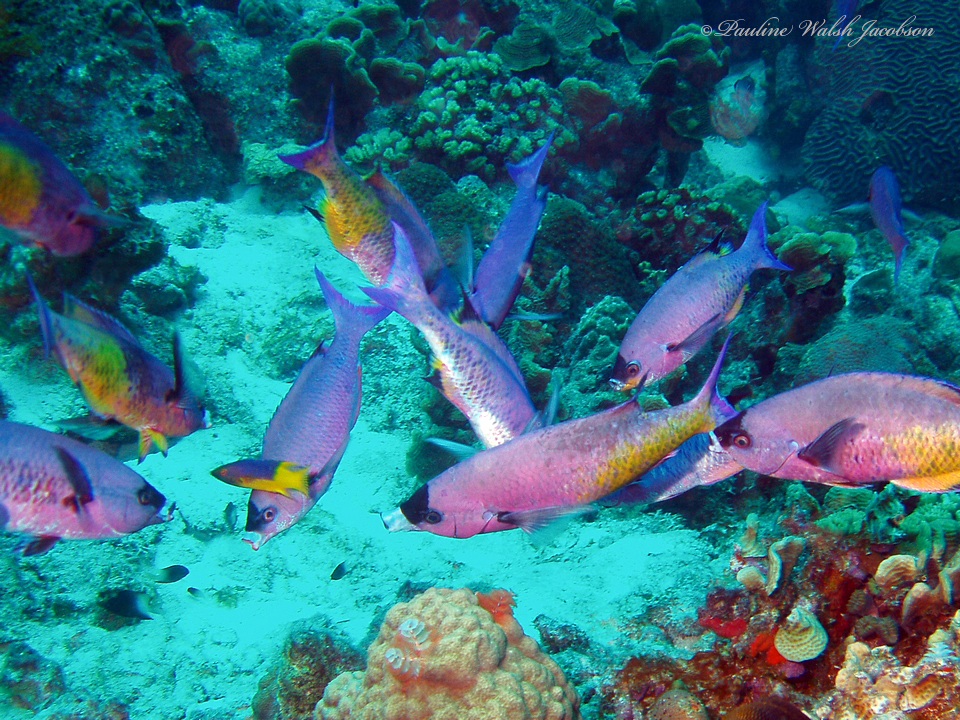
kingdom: Animalia
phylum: Chordata
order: Perciformes
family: Labridae
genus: Bodianus
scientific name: Bodianus
